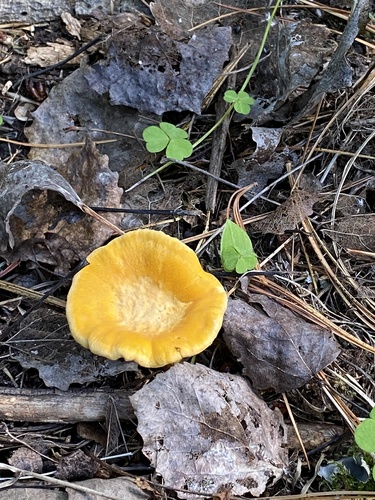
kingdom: Fungi
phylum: Basidiomycota
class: Agaricomycetes
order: Cantharellales
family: Hydnaceae
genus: Cantharellus
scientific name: Cantharellus cibarius
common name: Chanterelle
